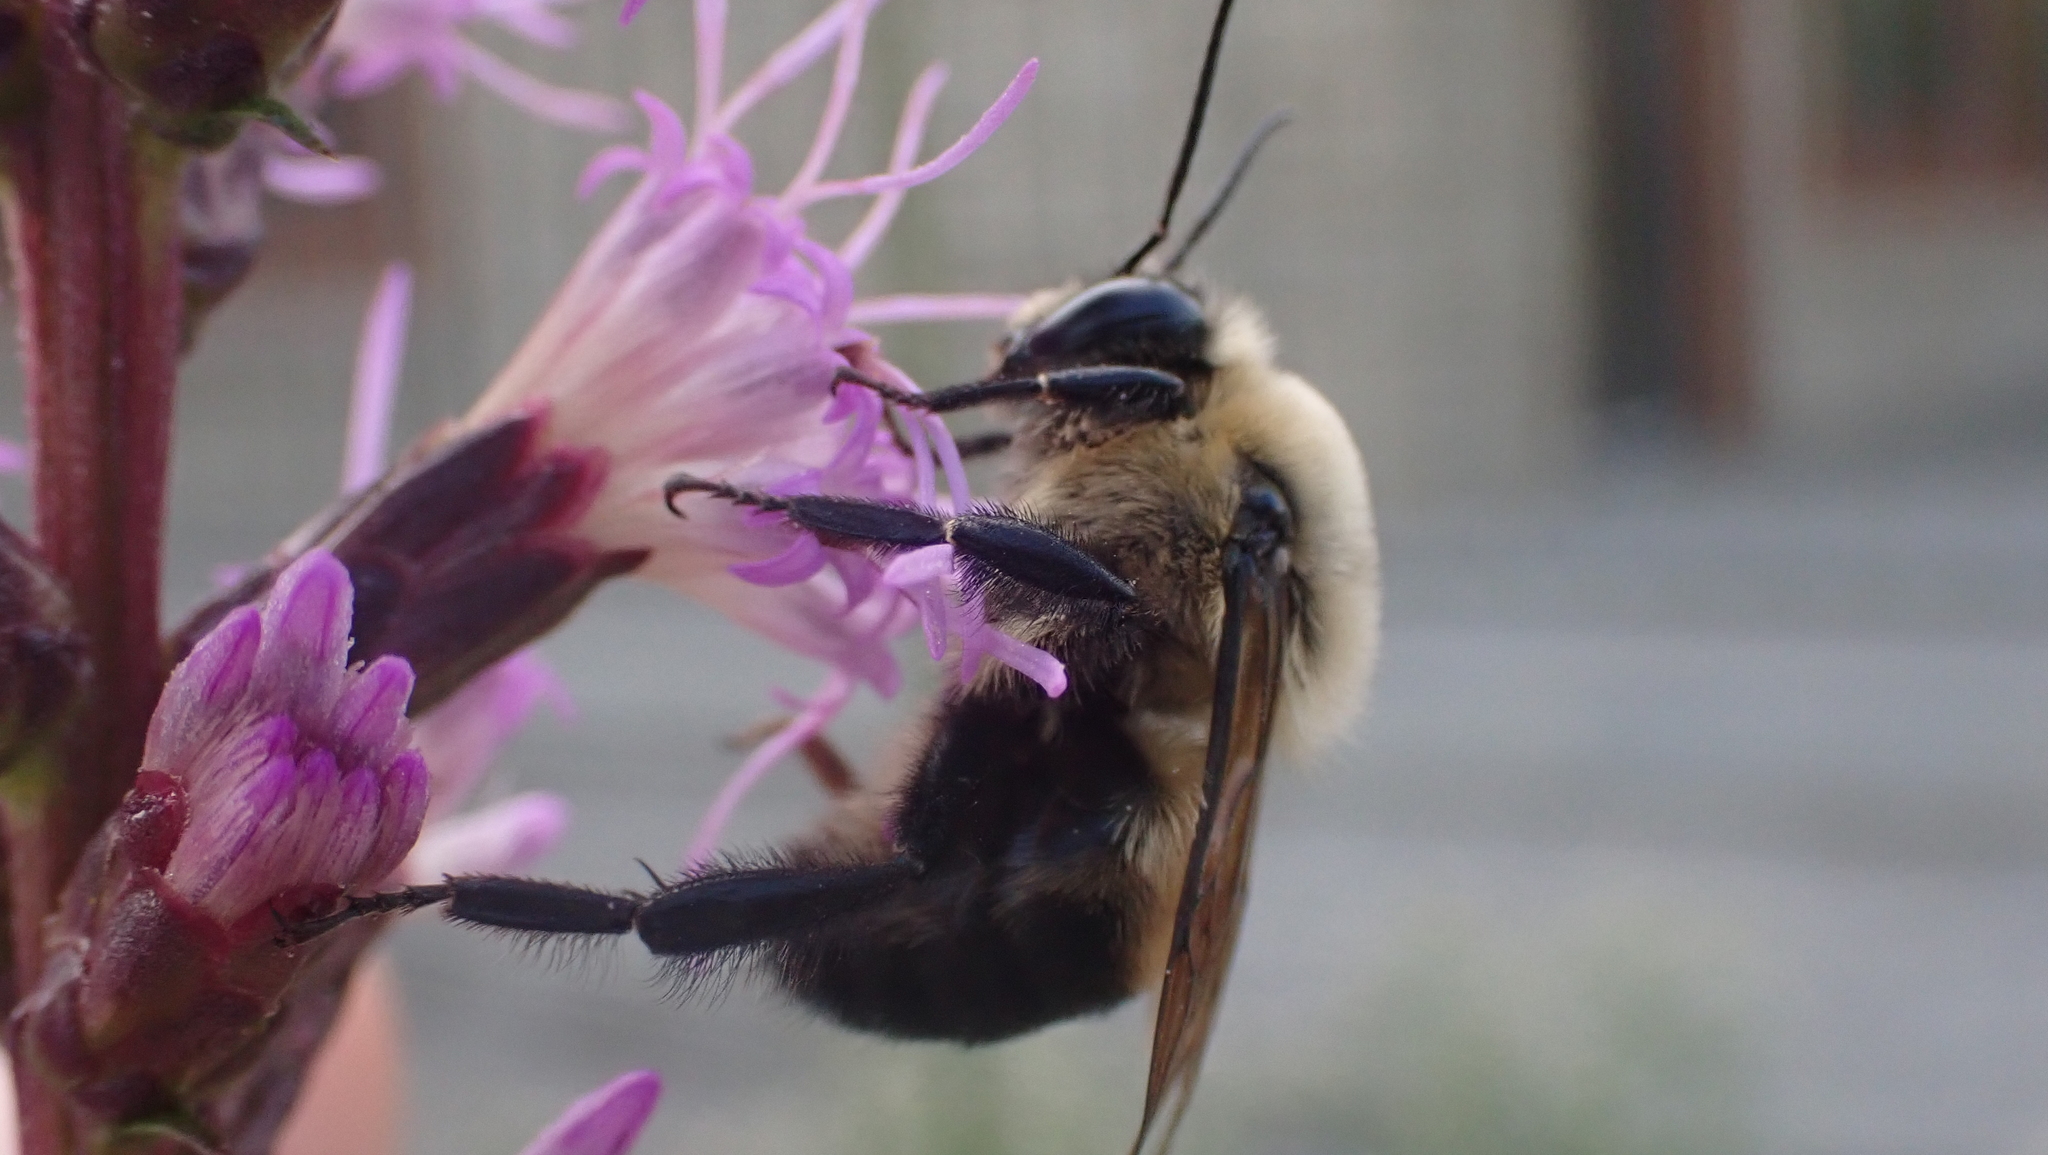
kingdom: Animalia
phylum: Arthropoda
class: Insecta
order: Hymenoptera
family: Apidae
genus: Bombus
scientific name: Bombus griseocollis
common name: Brown-belted bumble bee
